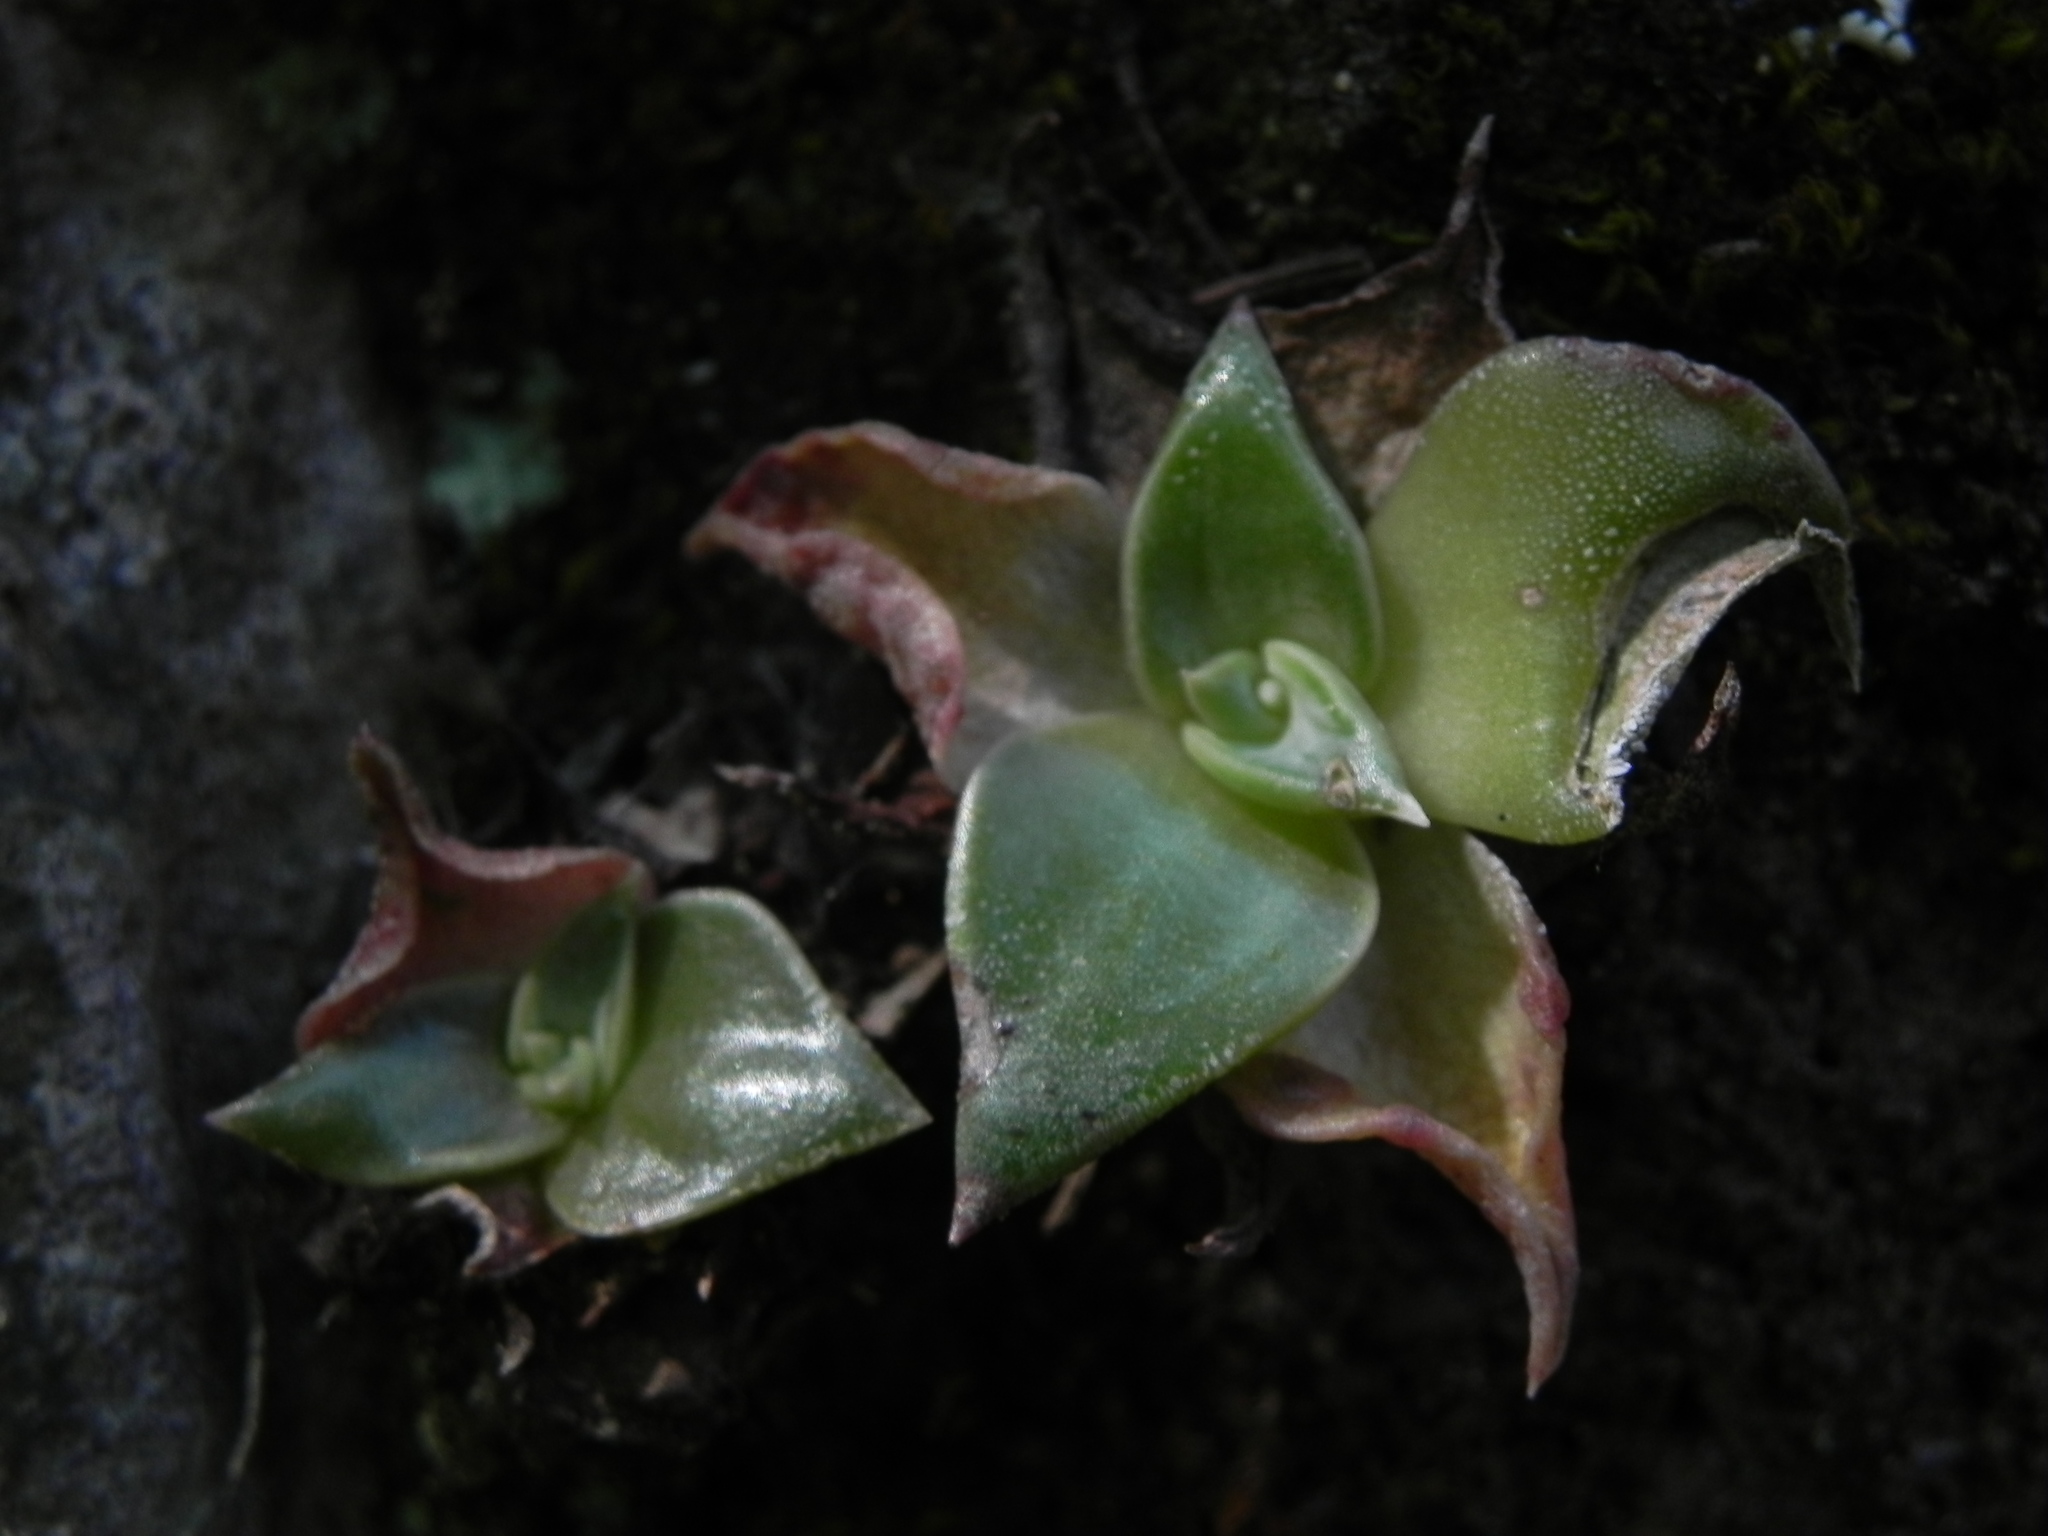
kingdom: Plantae
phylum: Tracheophyta
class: Magnoliopsida
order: Saxifragales
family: Crassulaceae
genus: Dudleya
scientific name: Dudleya cymosa
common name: Canyon dudleya
